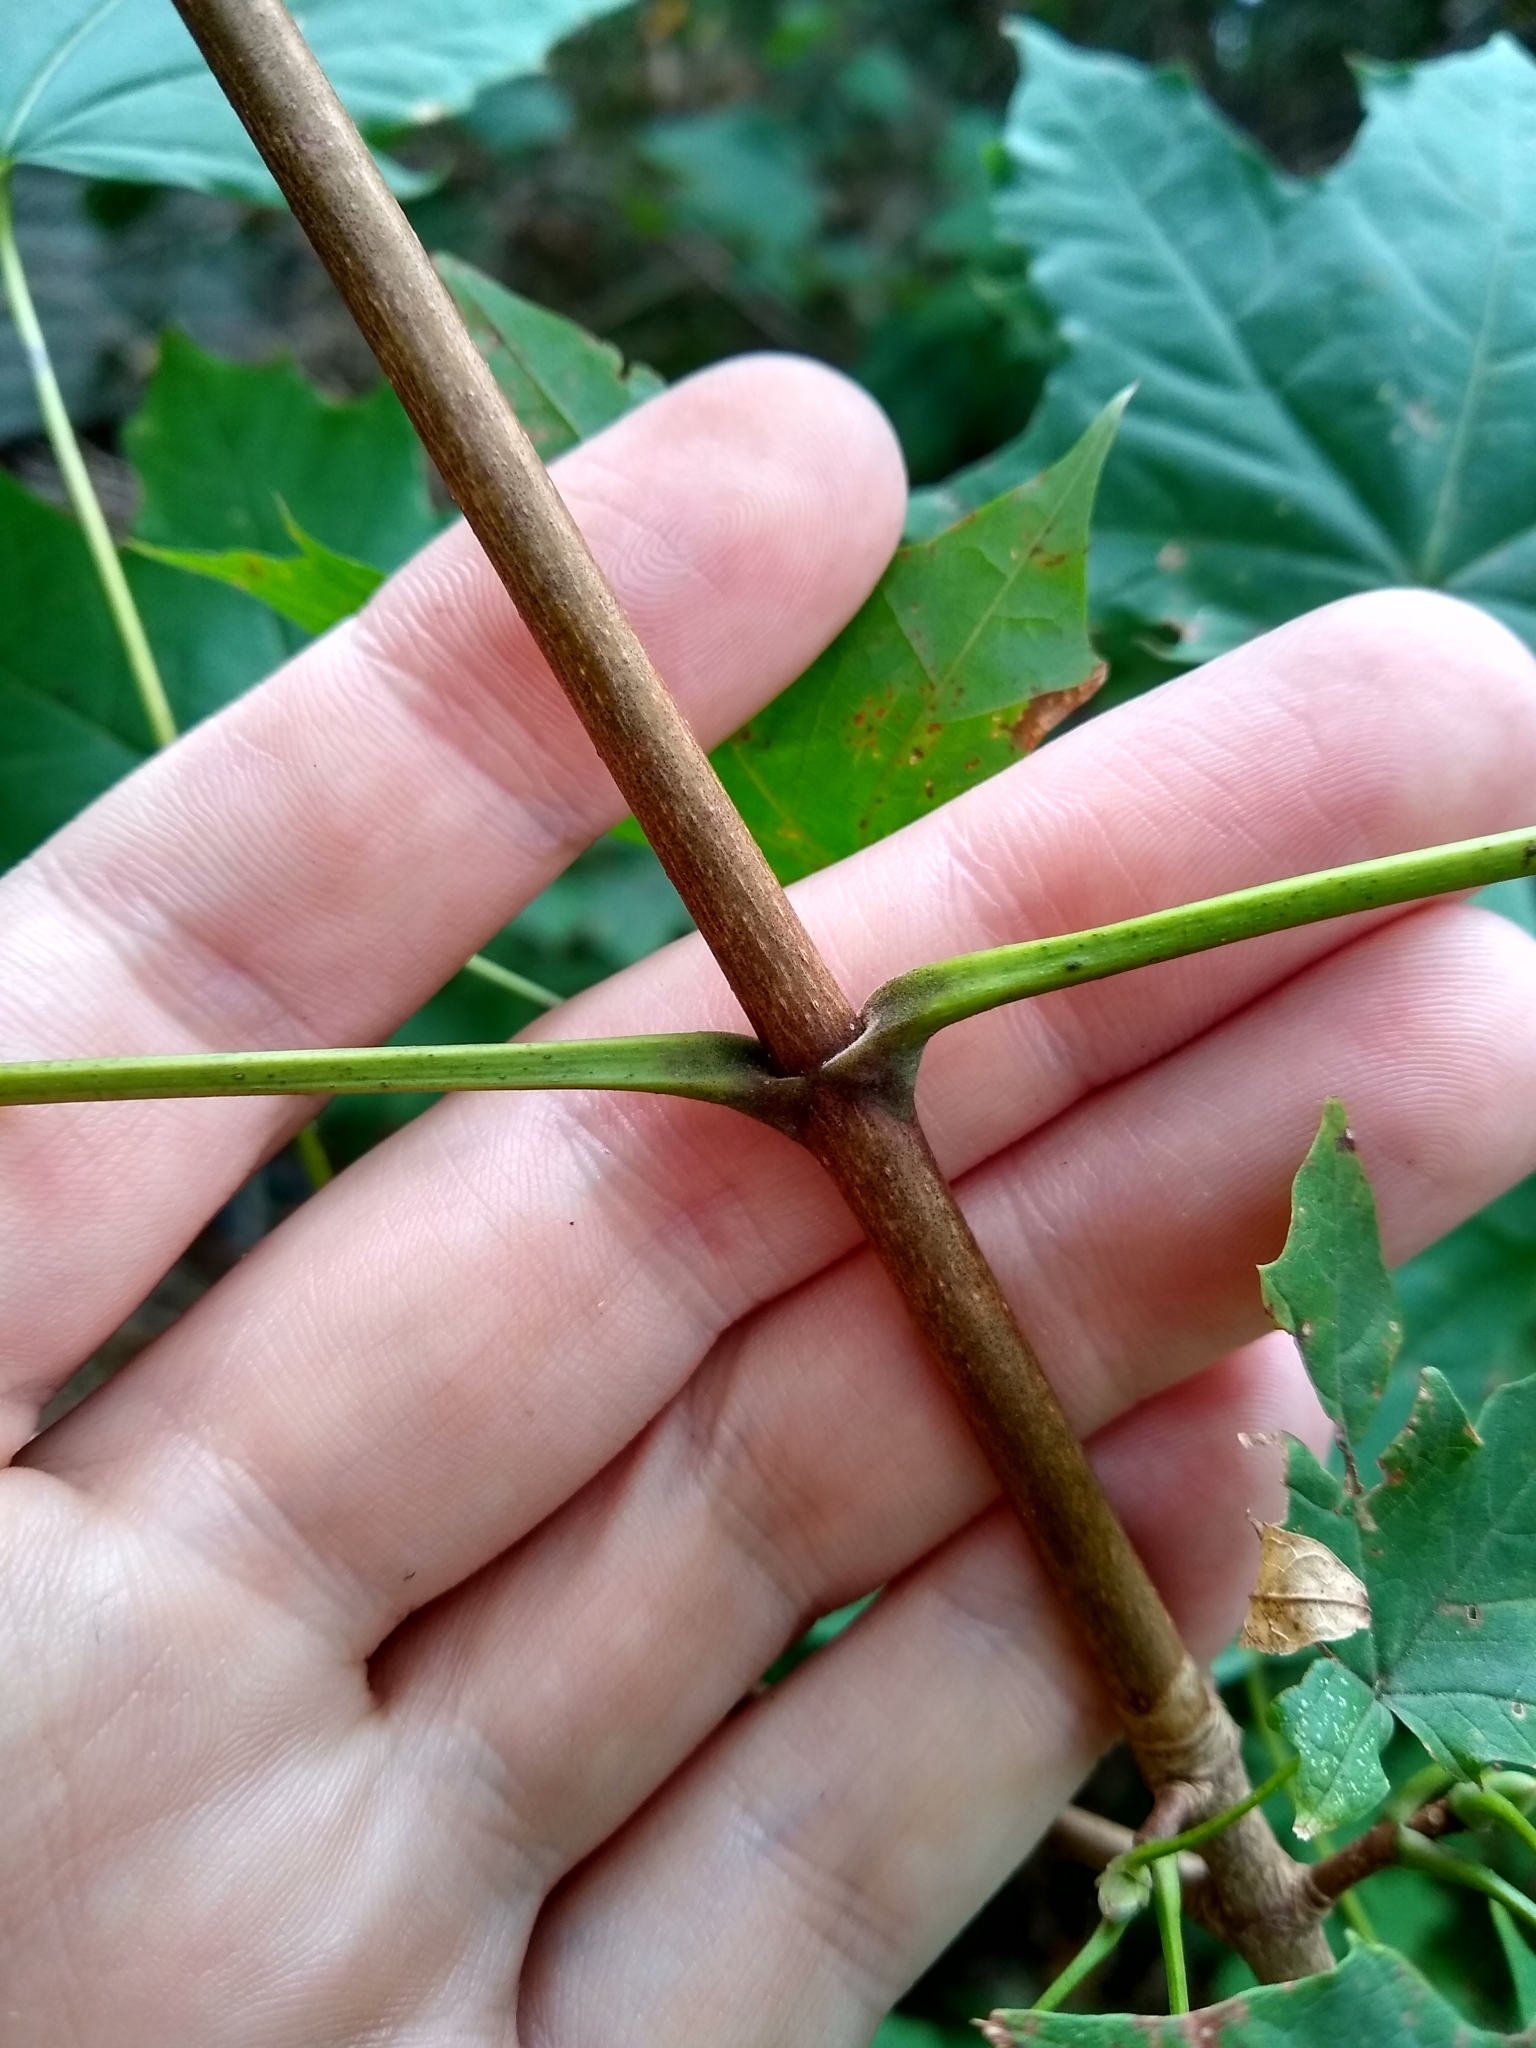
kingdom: Plantae
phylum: Tracheophyta
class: Magnoliopsida
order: Sapindales
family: Sapindaceae
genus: Acer
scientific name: Acer platanoides
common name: Norway maple
